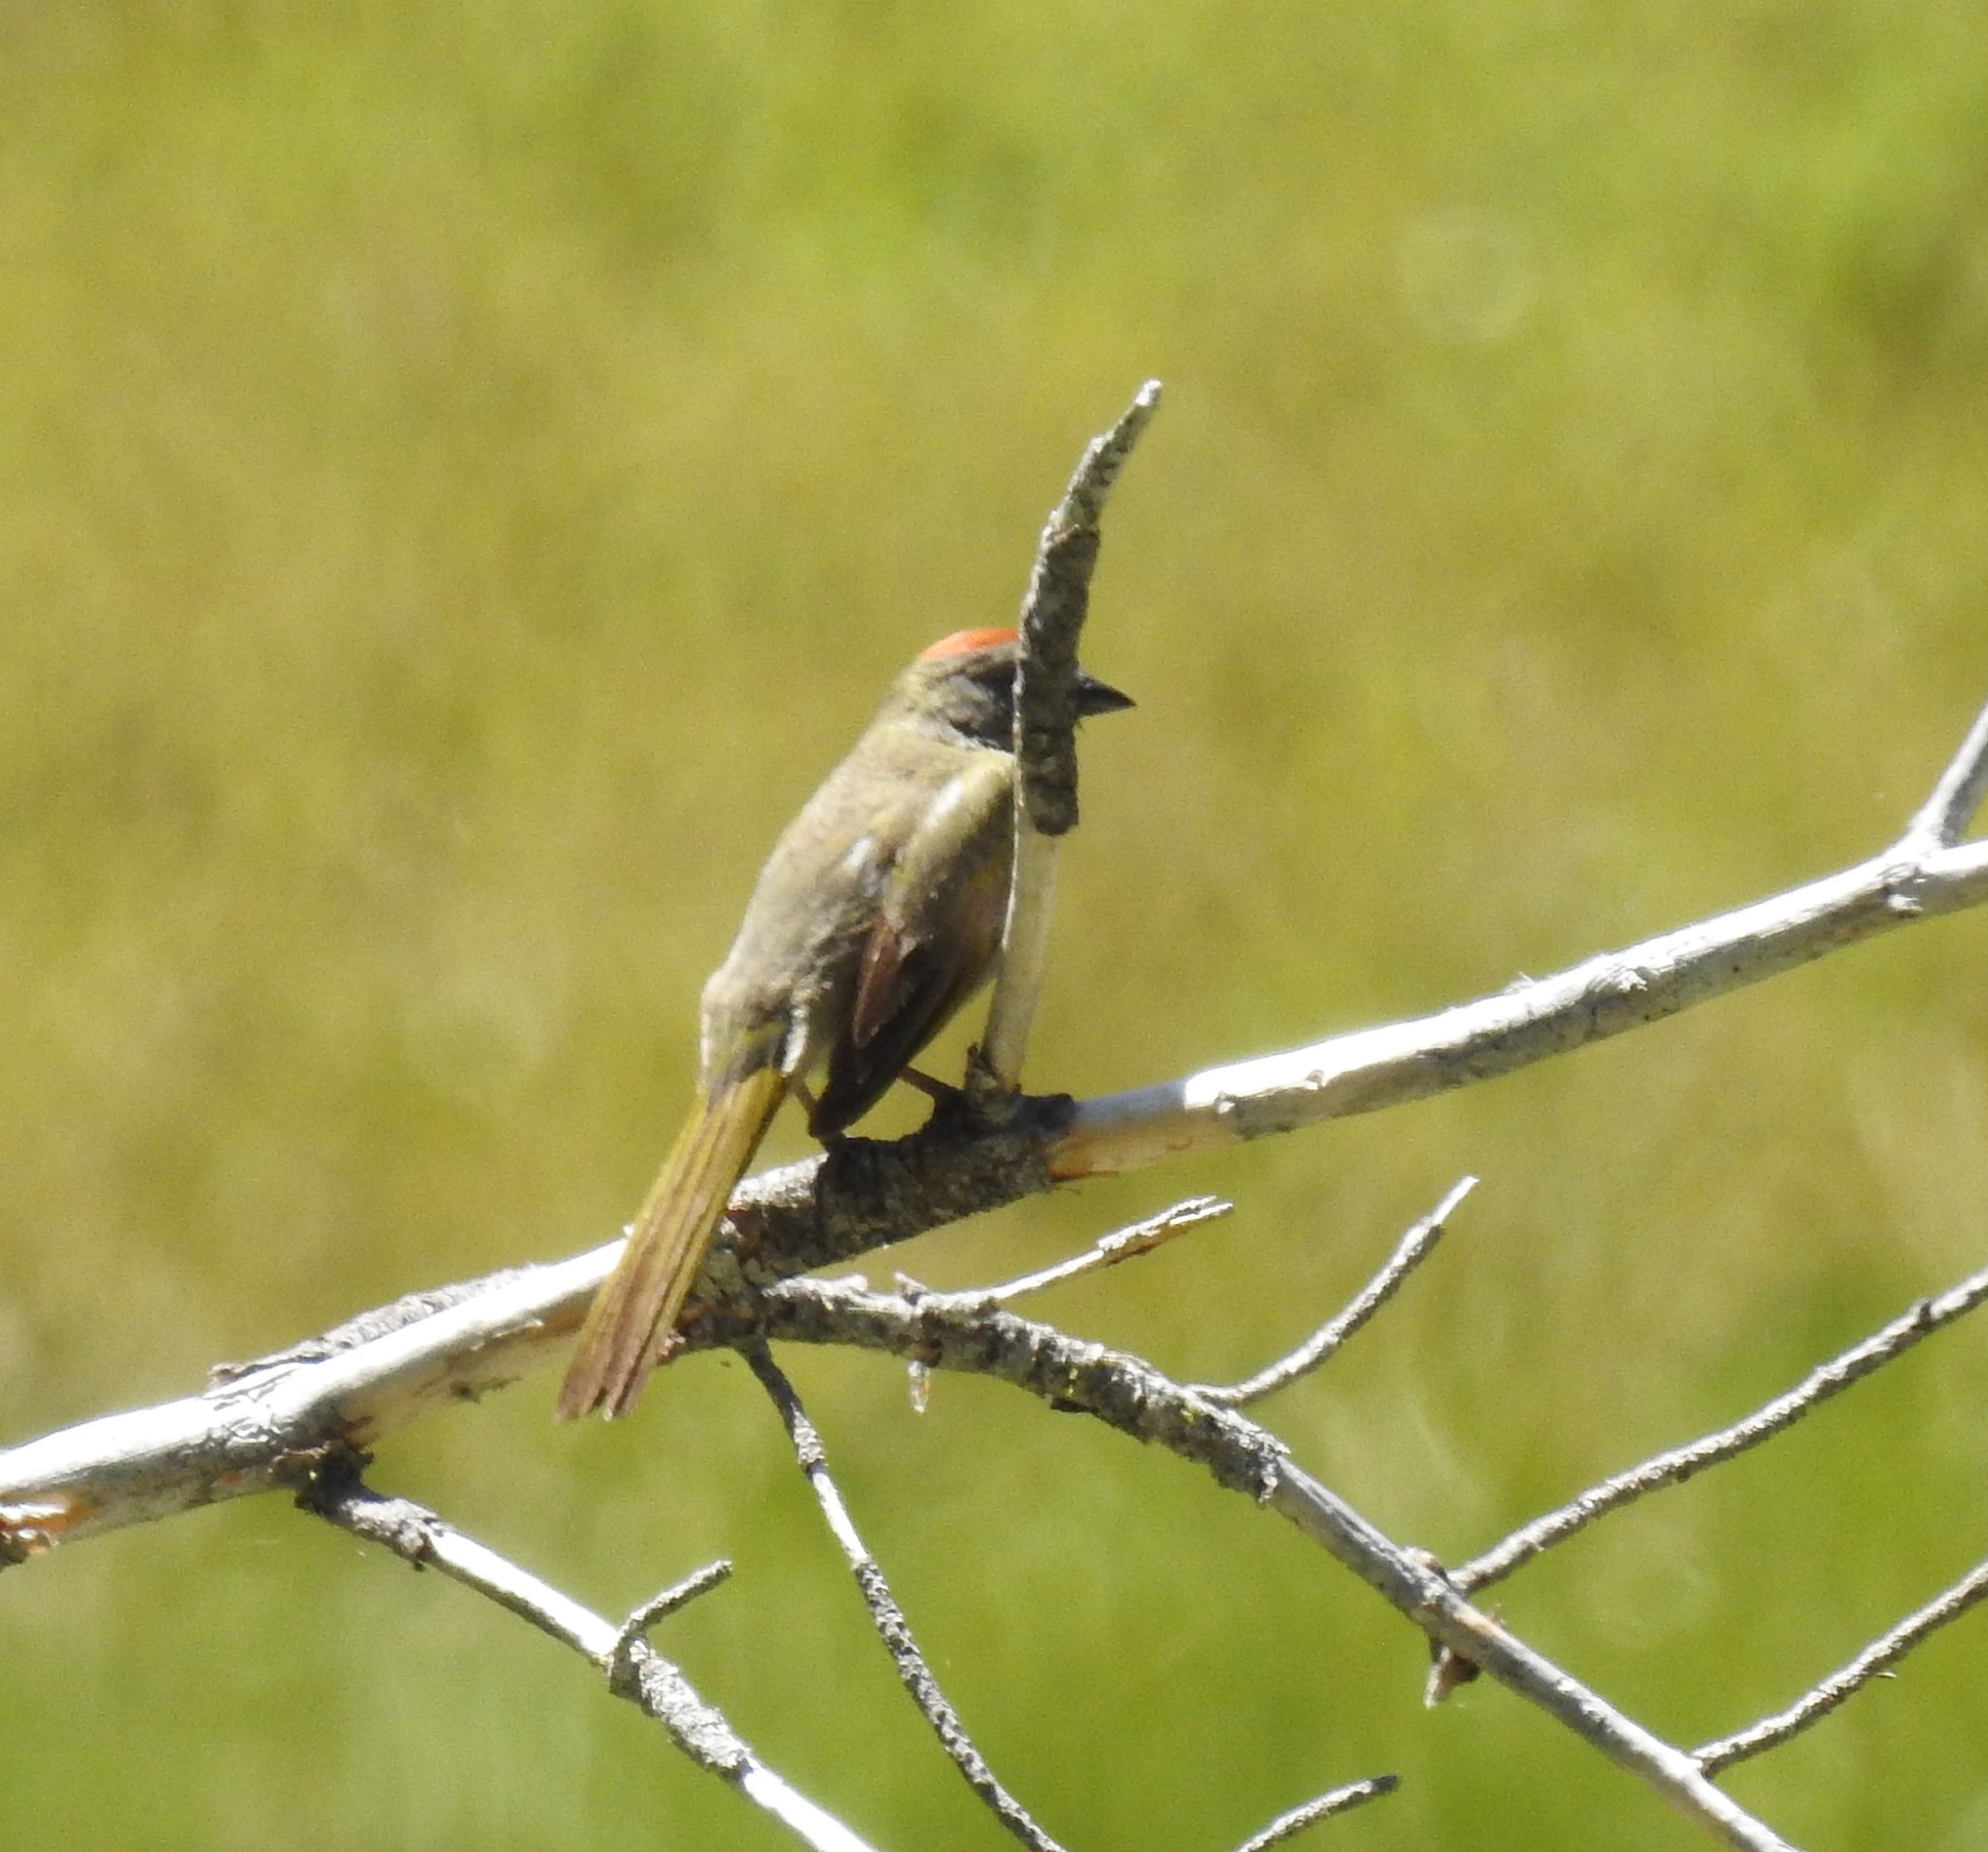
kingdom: Animalia
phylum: Chordata
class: Aves
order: Passeriformes
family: Passerellidae
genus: Pipilo
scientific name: Pipilo chlorurus
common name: Green-tailed towhee
